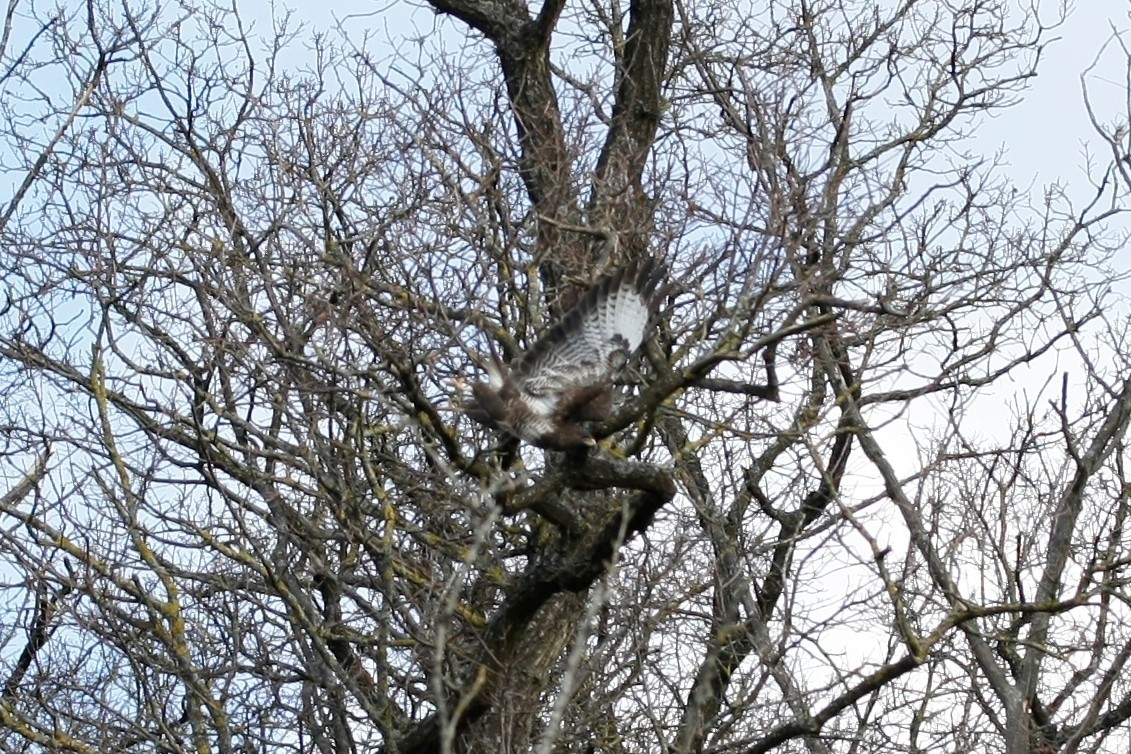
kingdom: Animalia
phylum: Chordata
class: Aves
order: Accipitriformes
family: Accipitridae
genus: Buteo
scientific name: Buteo buteo
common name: Common buzzard
